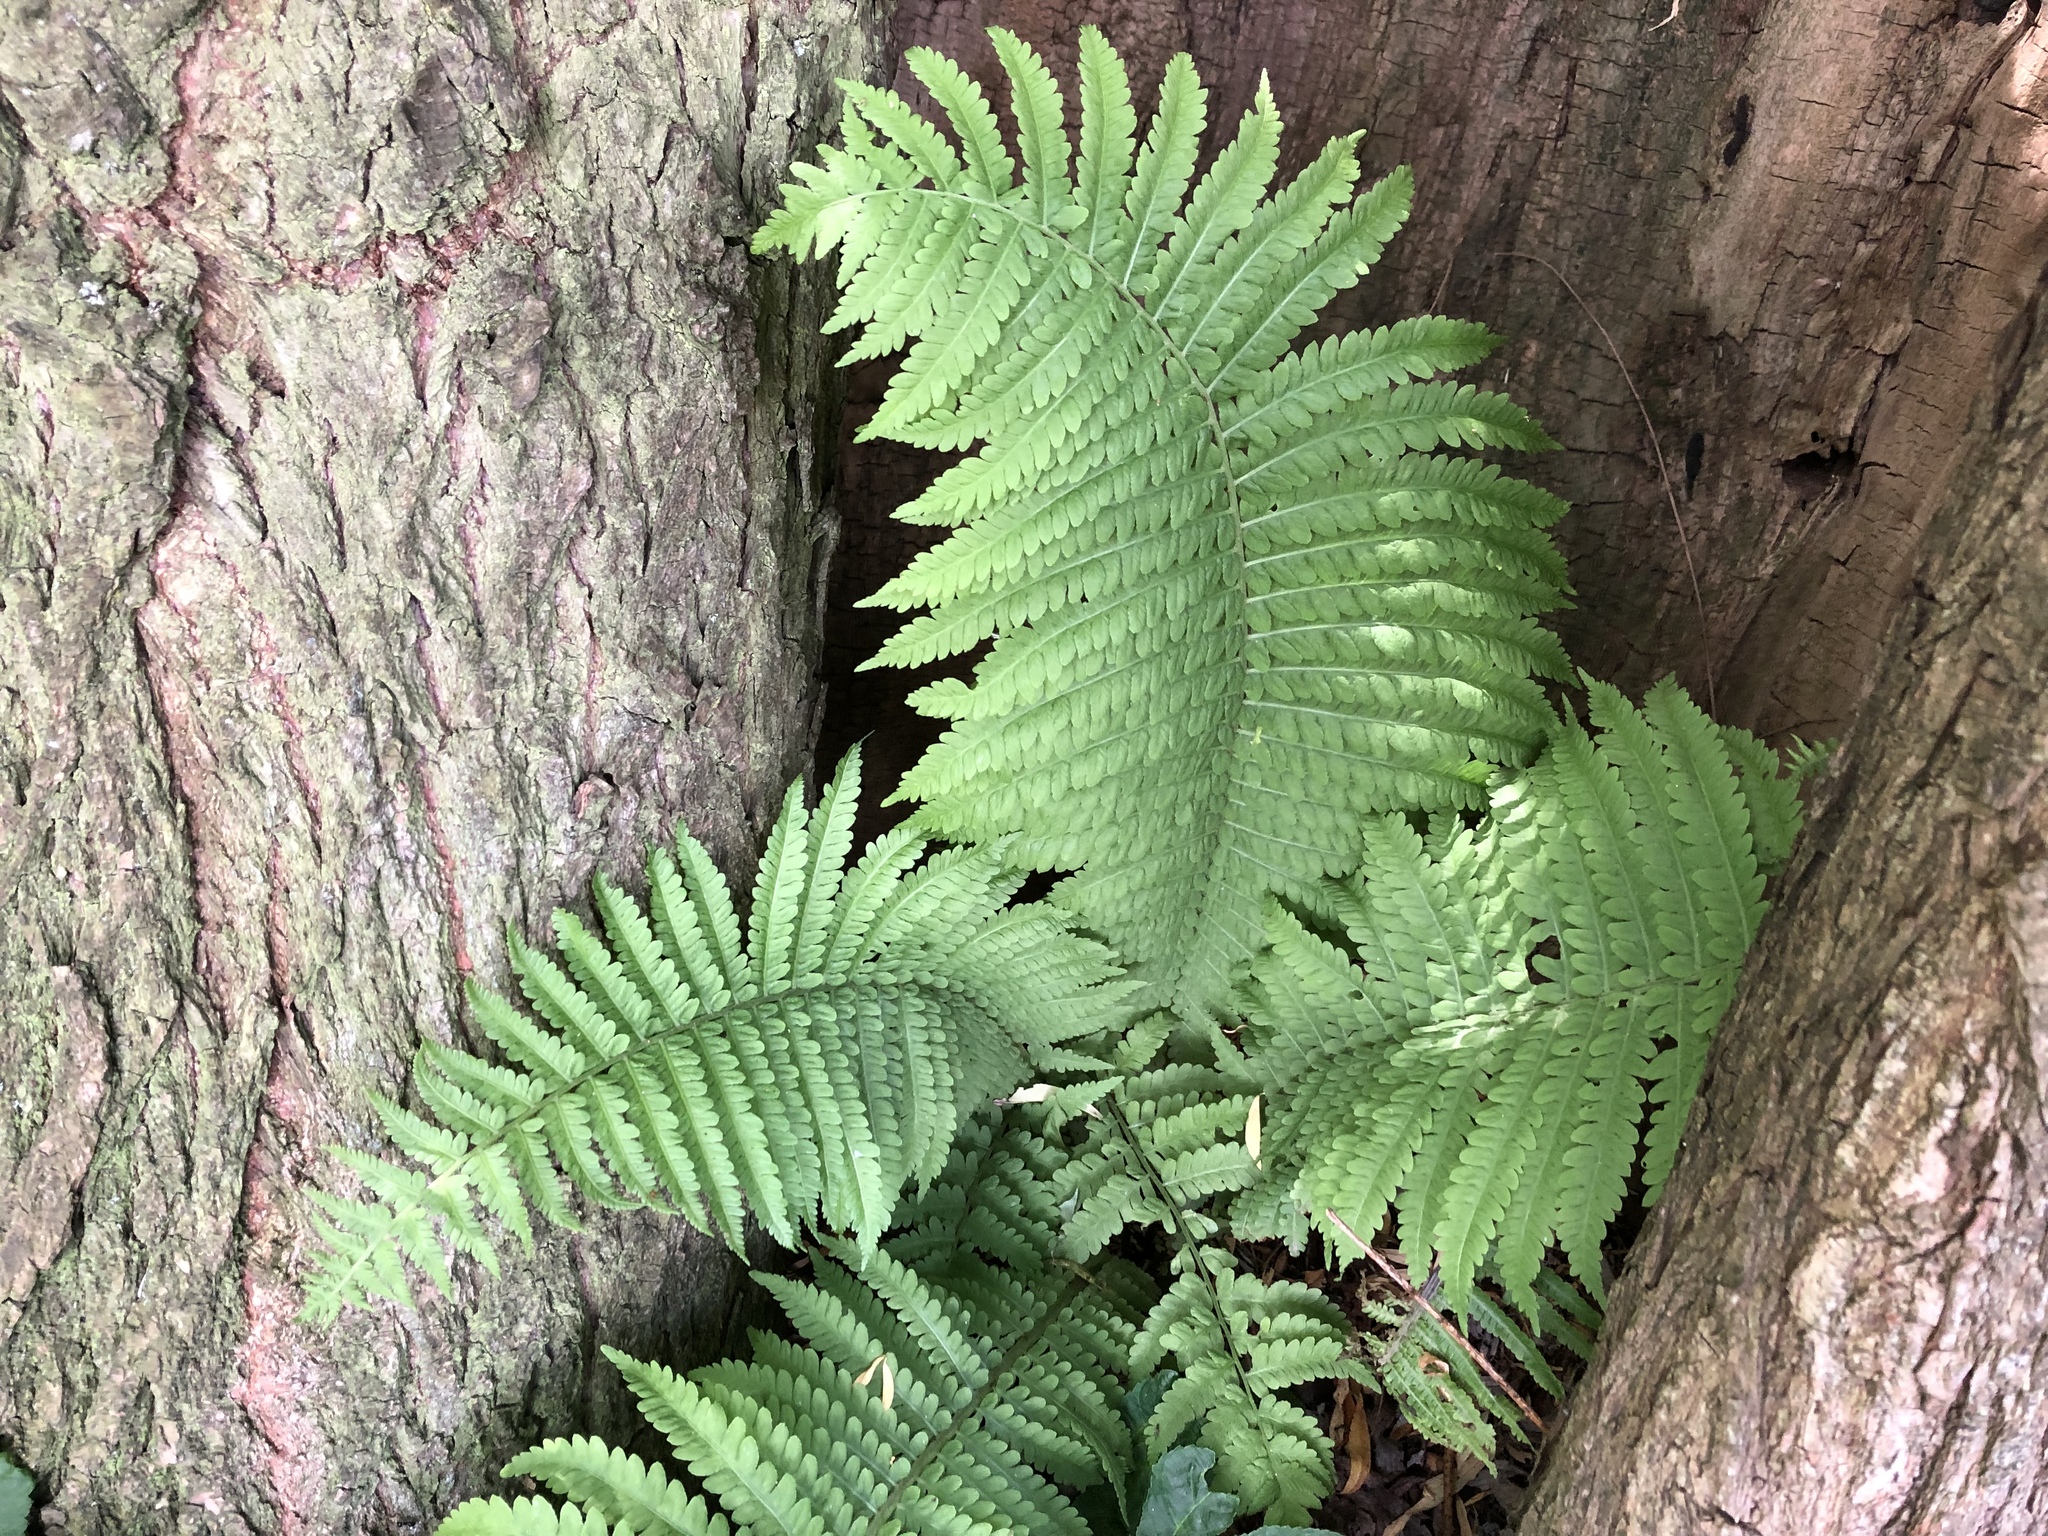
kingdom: Plantae
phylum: Tracheophyta
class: Polypodiopsida
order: Polypodiales
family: Dryopteridaceae
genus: Dryopteris
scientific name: Dryopteris filix-mas
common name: Male fern
